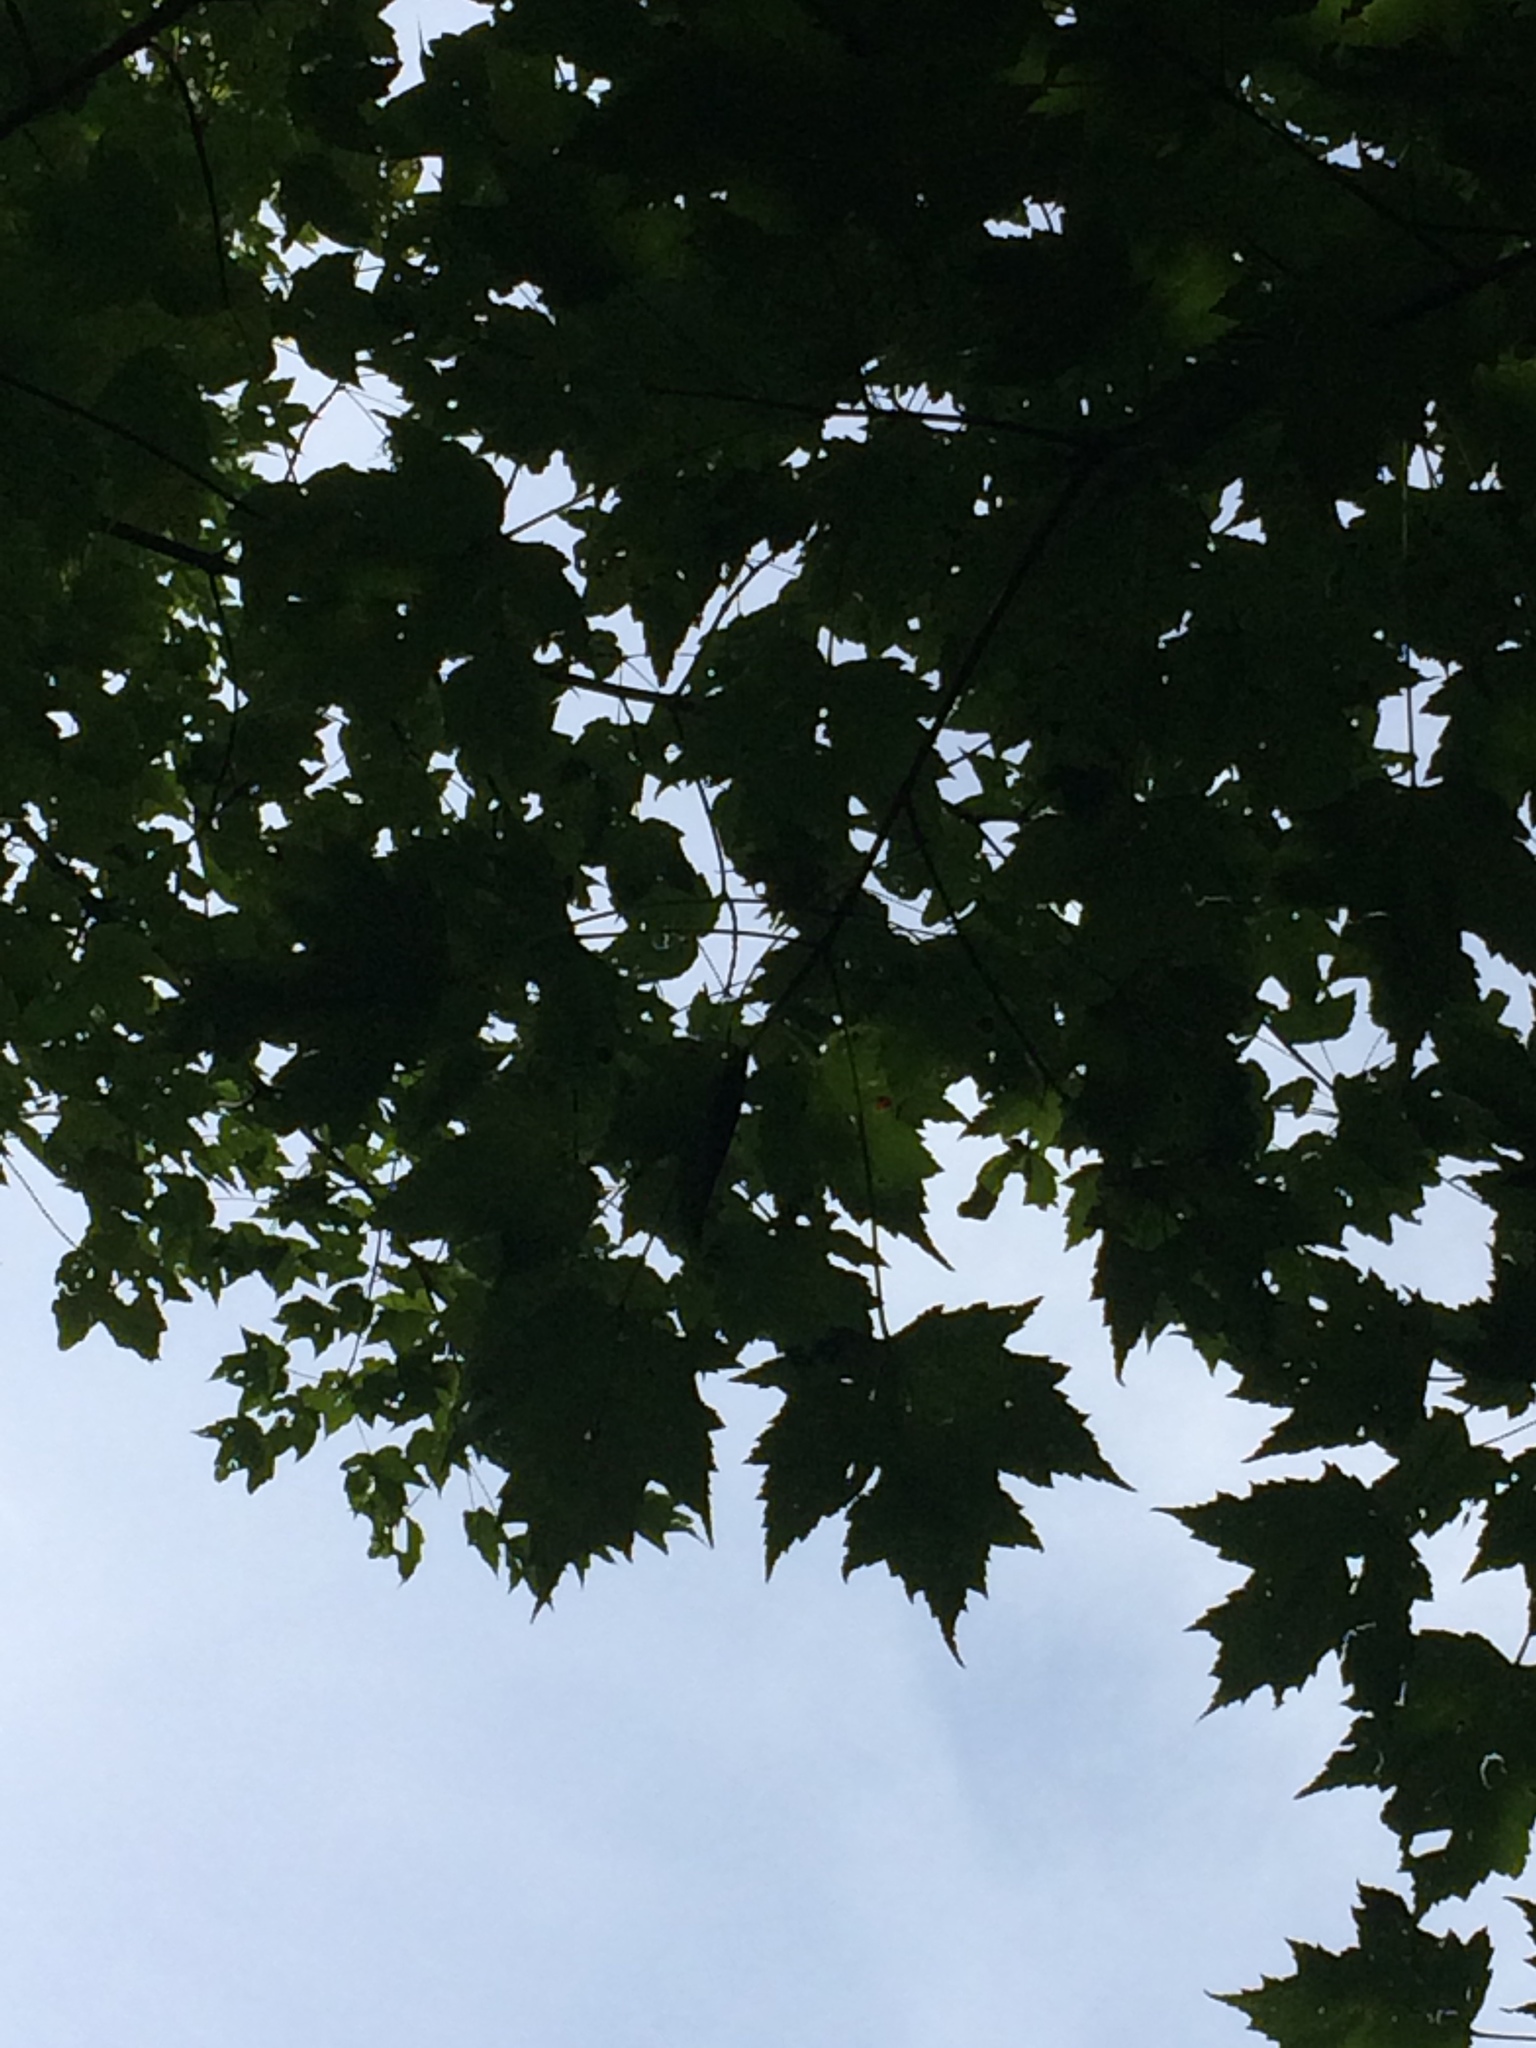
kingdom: Plantae
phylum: Tracheophyta
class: Magnoliopsida
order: Sapindales
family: Sapindaceae
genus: Acer
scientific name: Acer freemanii
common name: Freeman maple
